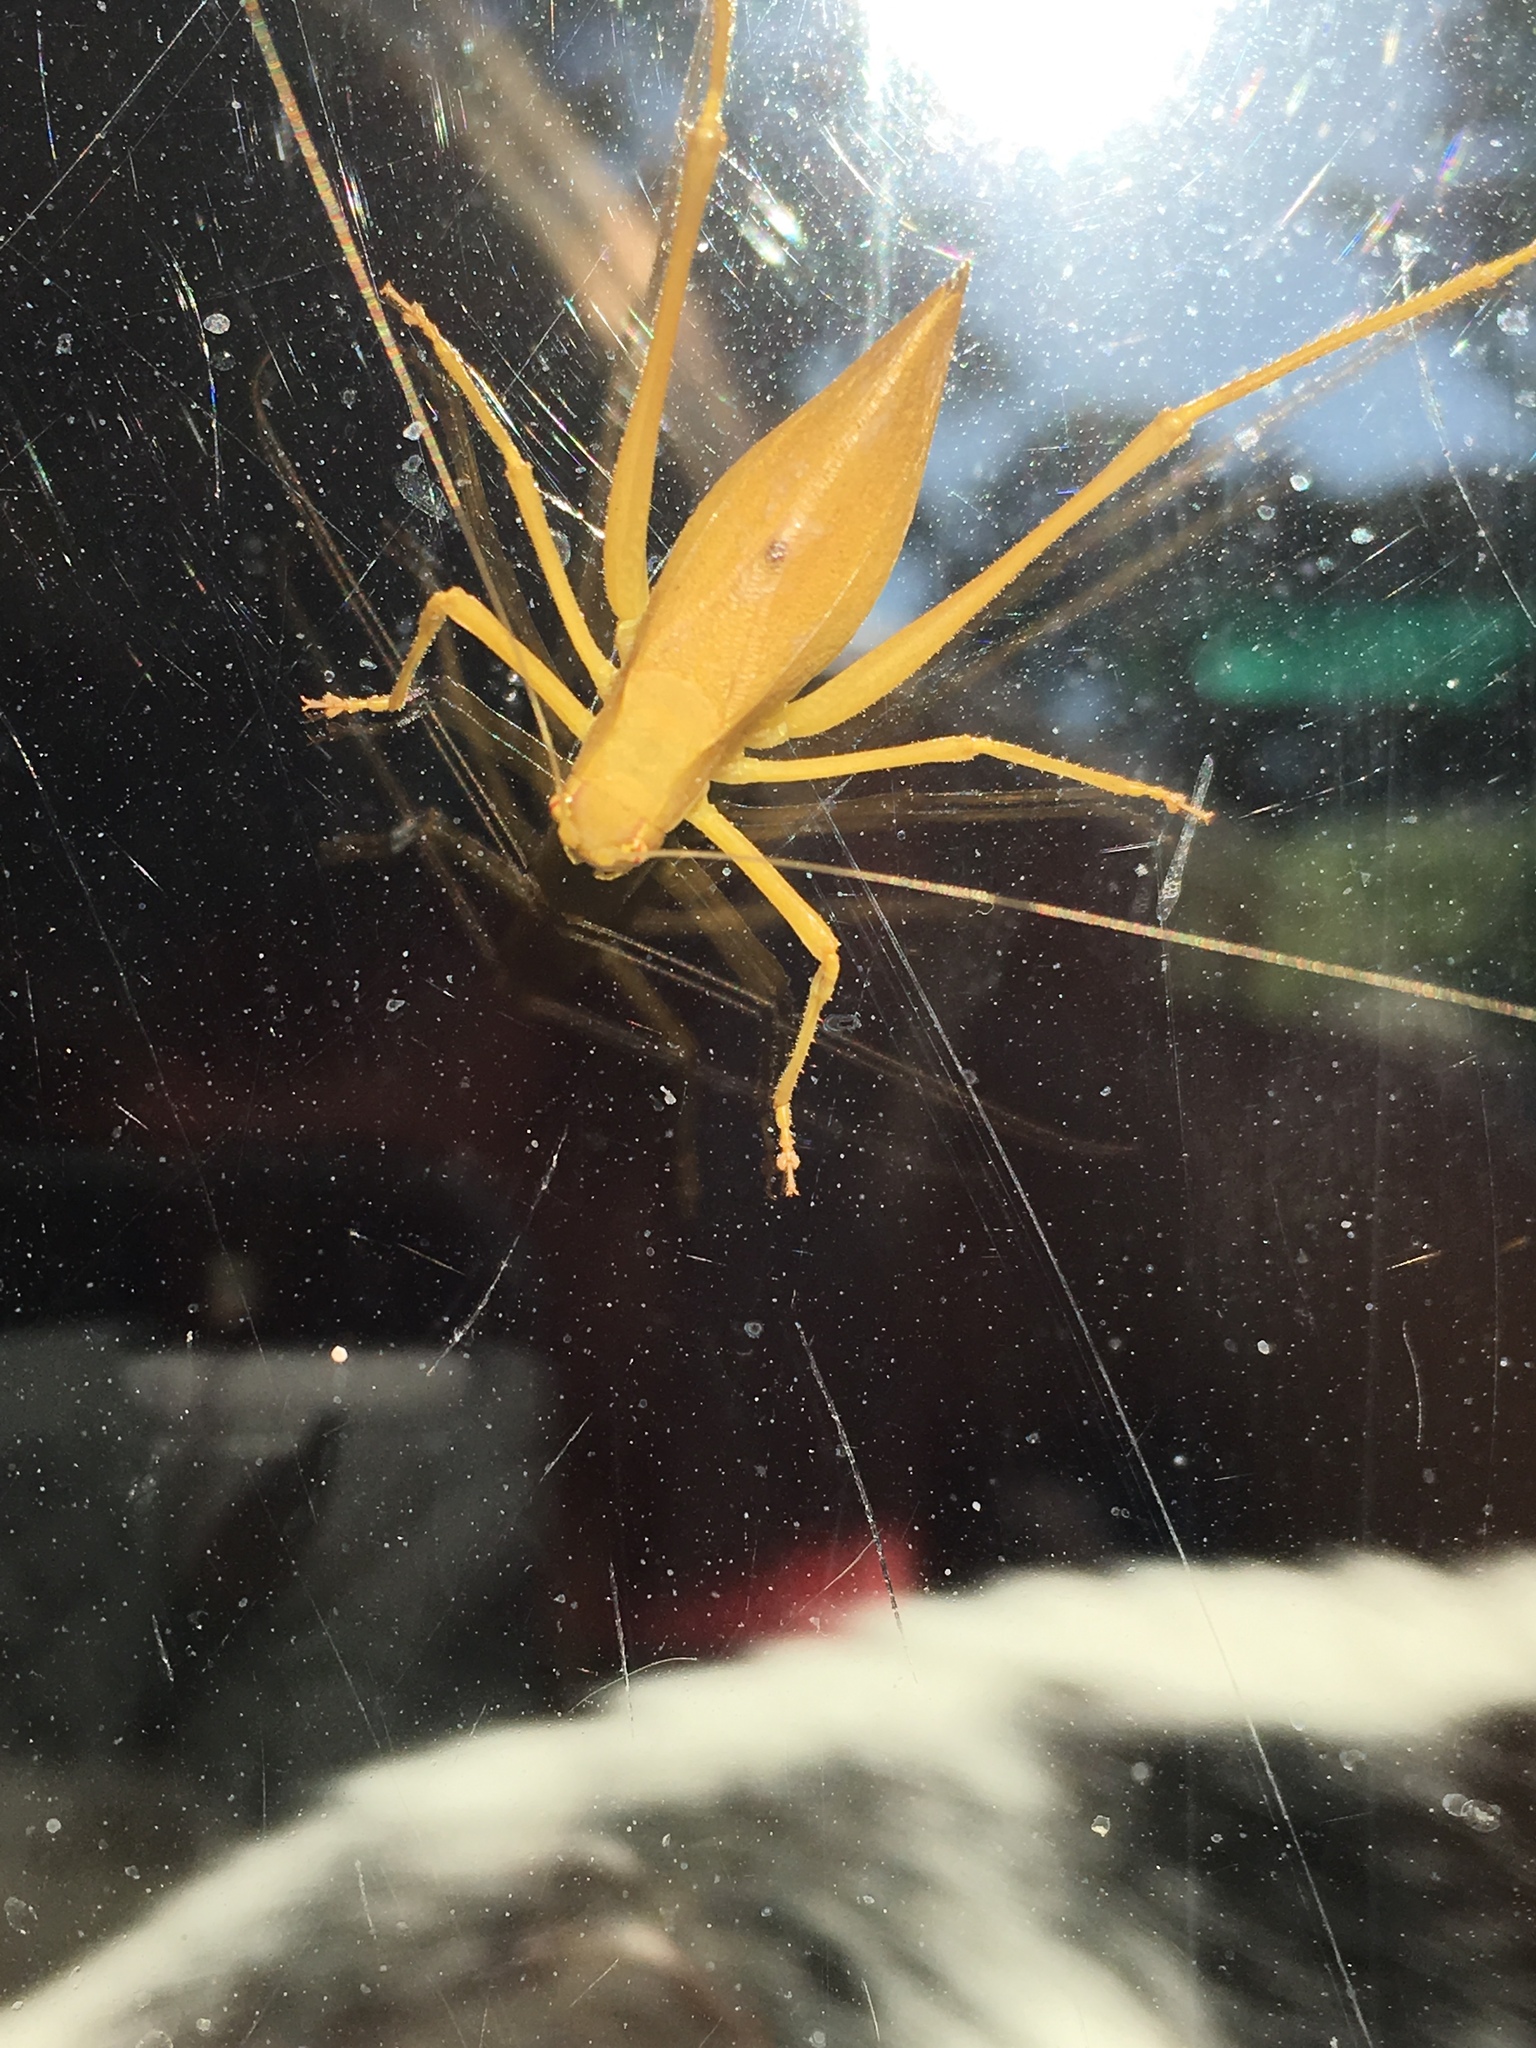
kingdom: Animalia
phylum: Arthropoda
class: Insecta
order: Orthoptera
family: Tettigoniidae
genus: Platylyra
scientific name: Platylyra californica
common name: Chaparral false katydid
